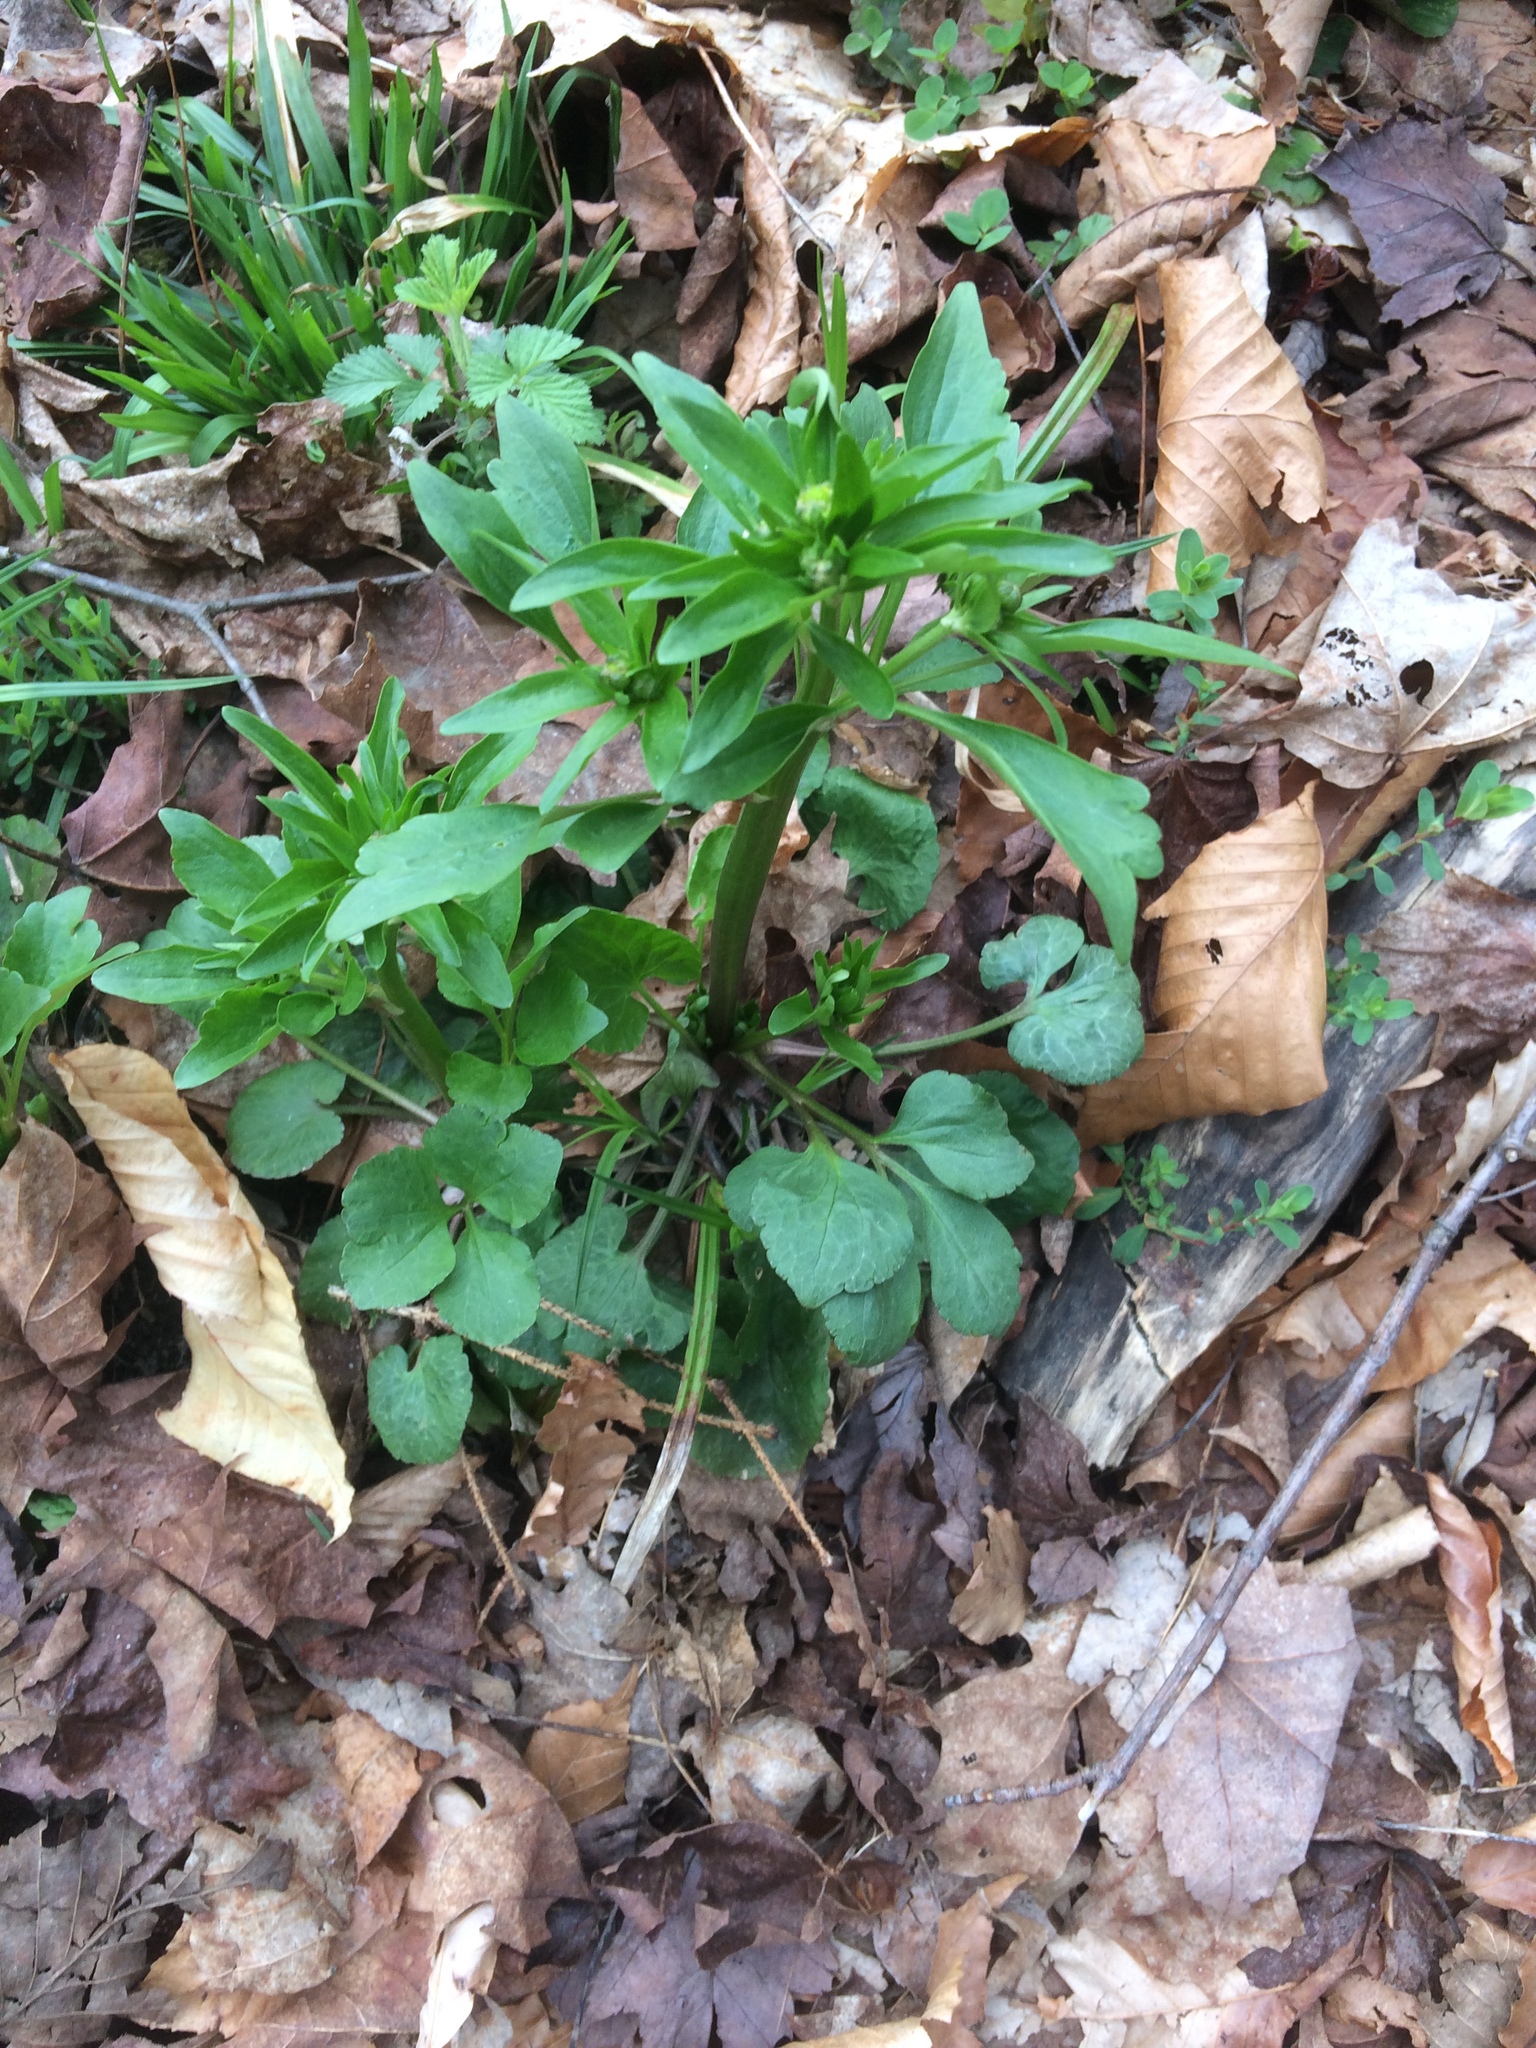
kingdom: Plantae
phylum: Tracheophyta
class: Magnoliopsida
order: Ranunculales
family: Ranunculaceae
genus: Ranunculus
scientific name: Ranunculus abortivus
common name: Early wood buttercup
